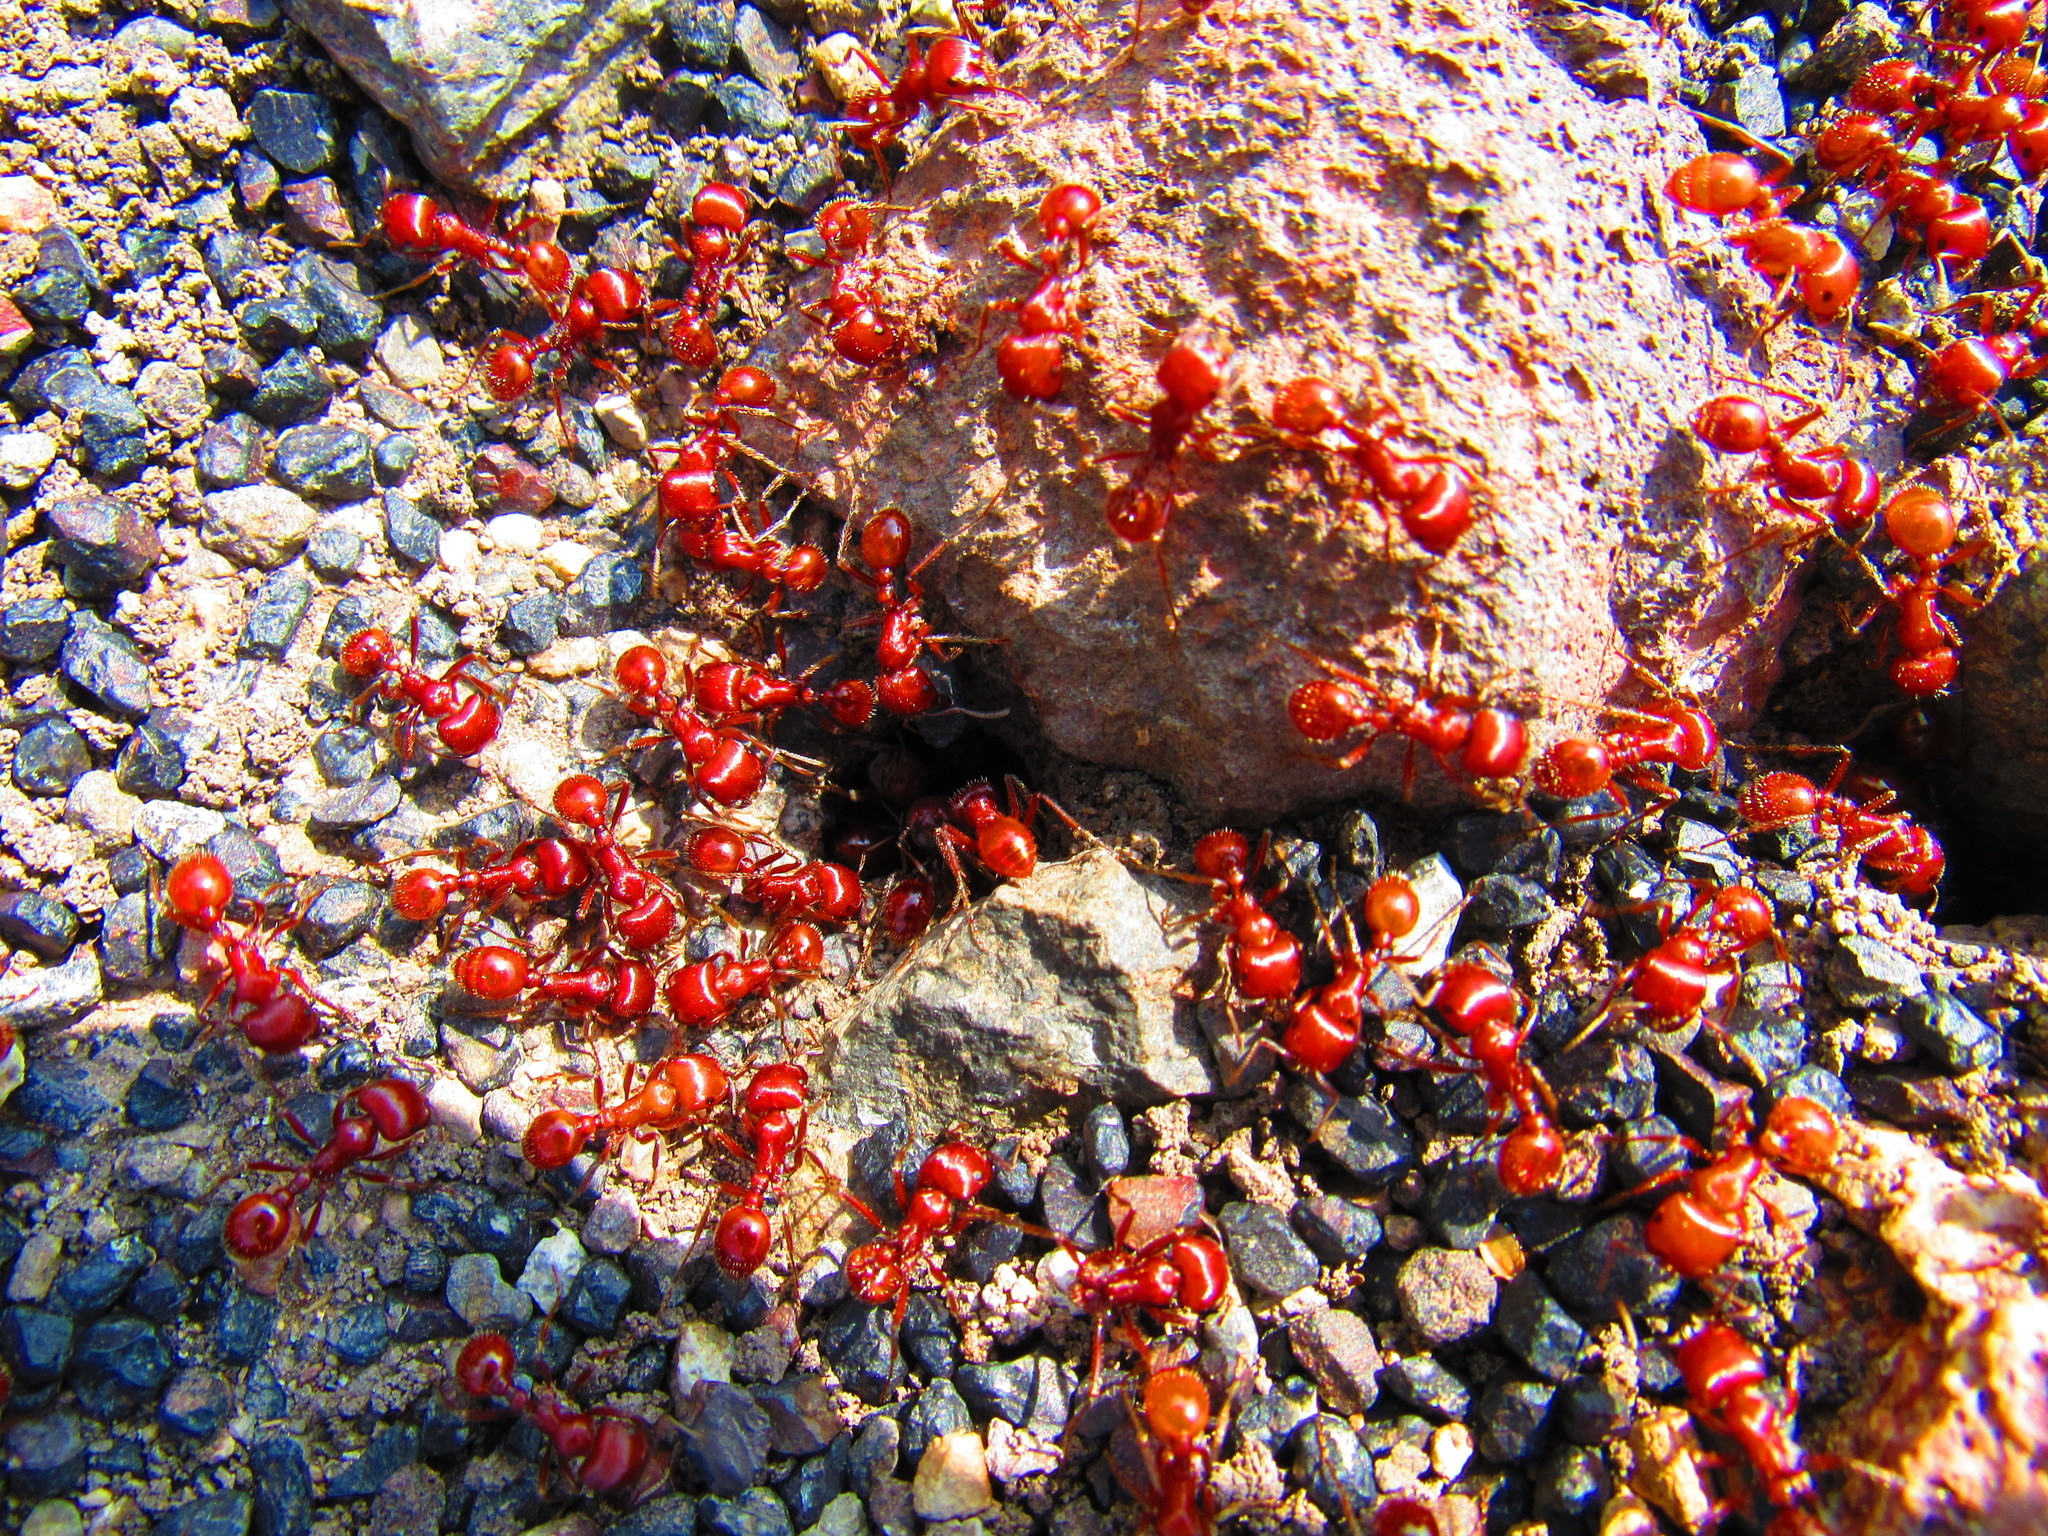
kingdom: Animalia
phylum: Arthropoda
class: Insecta
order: Hymenoptera
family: Formicidae
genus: Pogonomyrmex
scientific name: Pogonomyrmex barbatus
